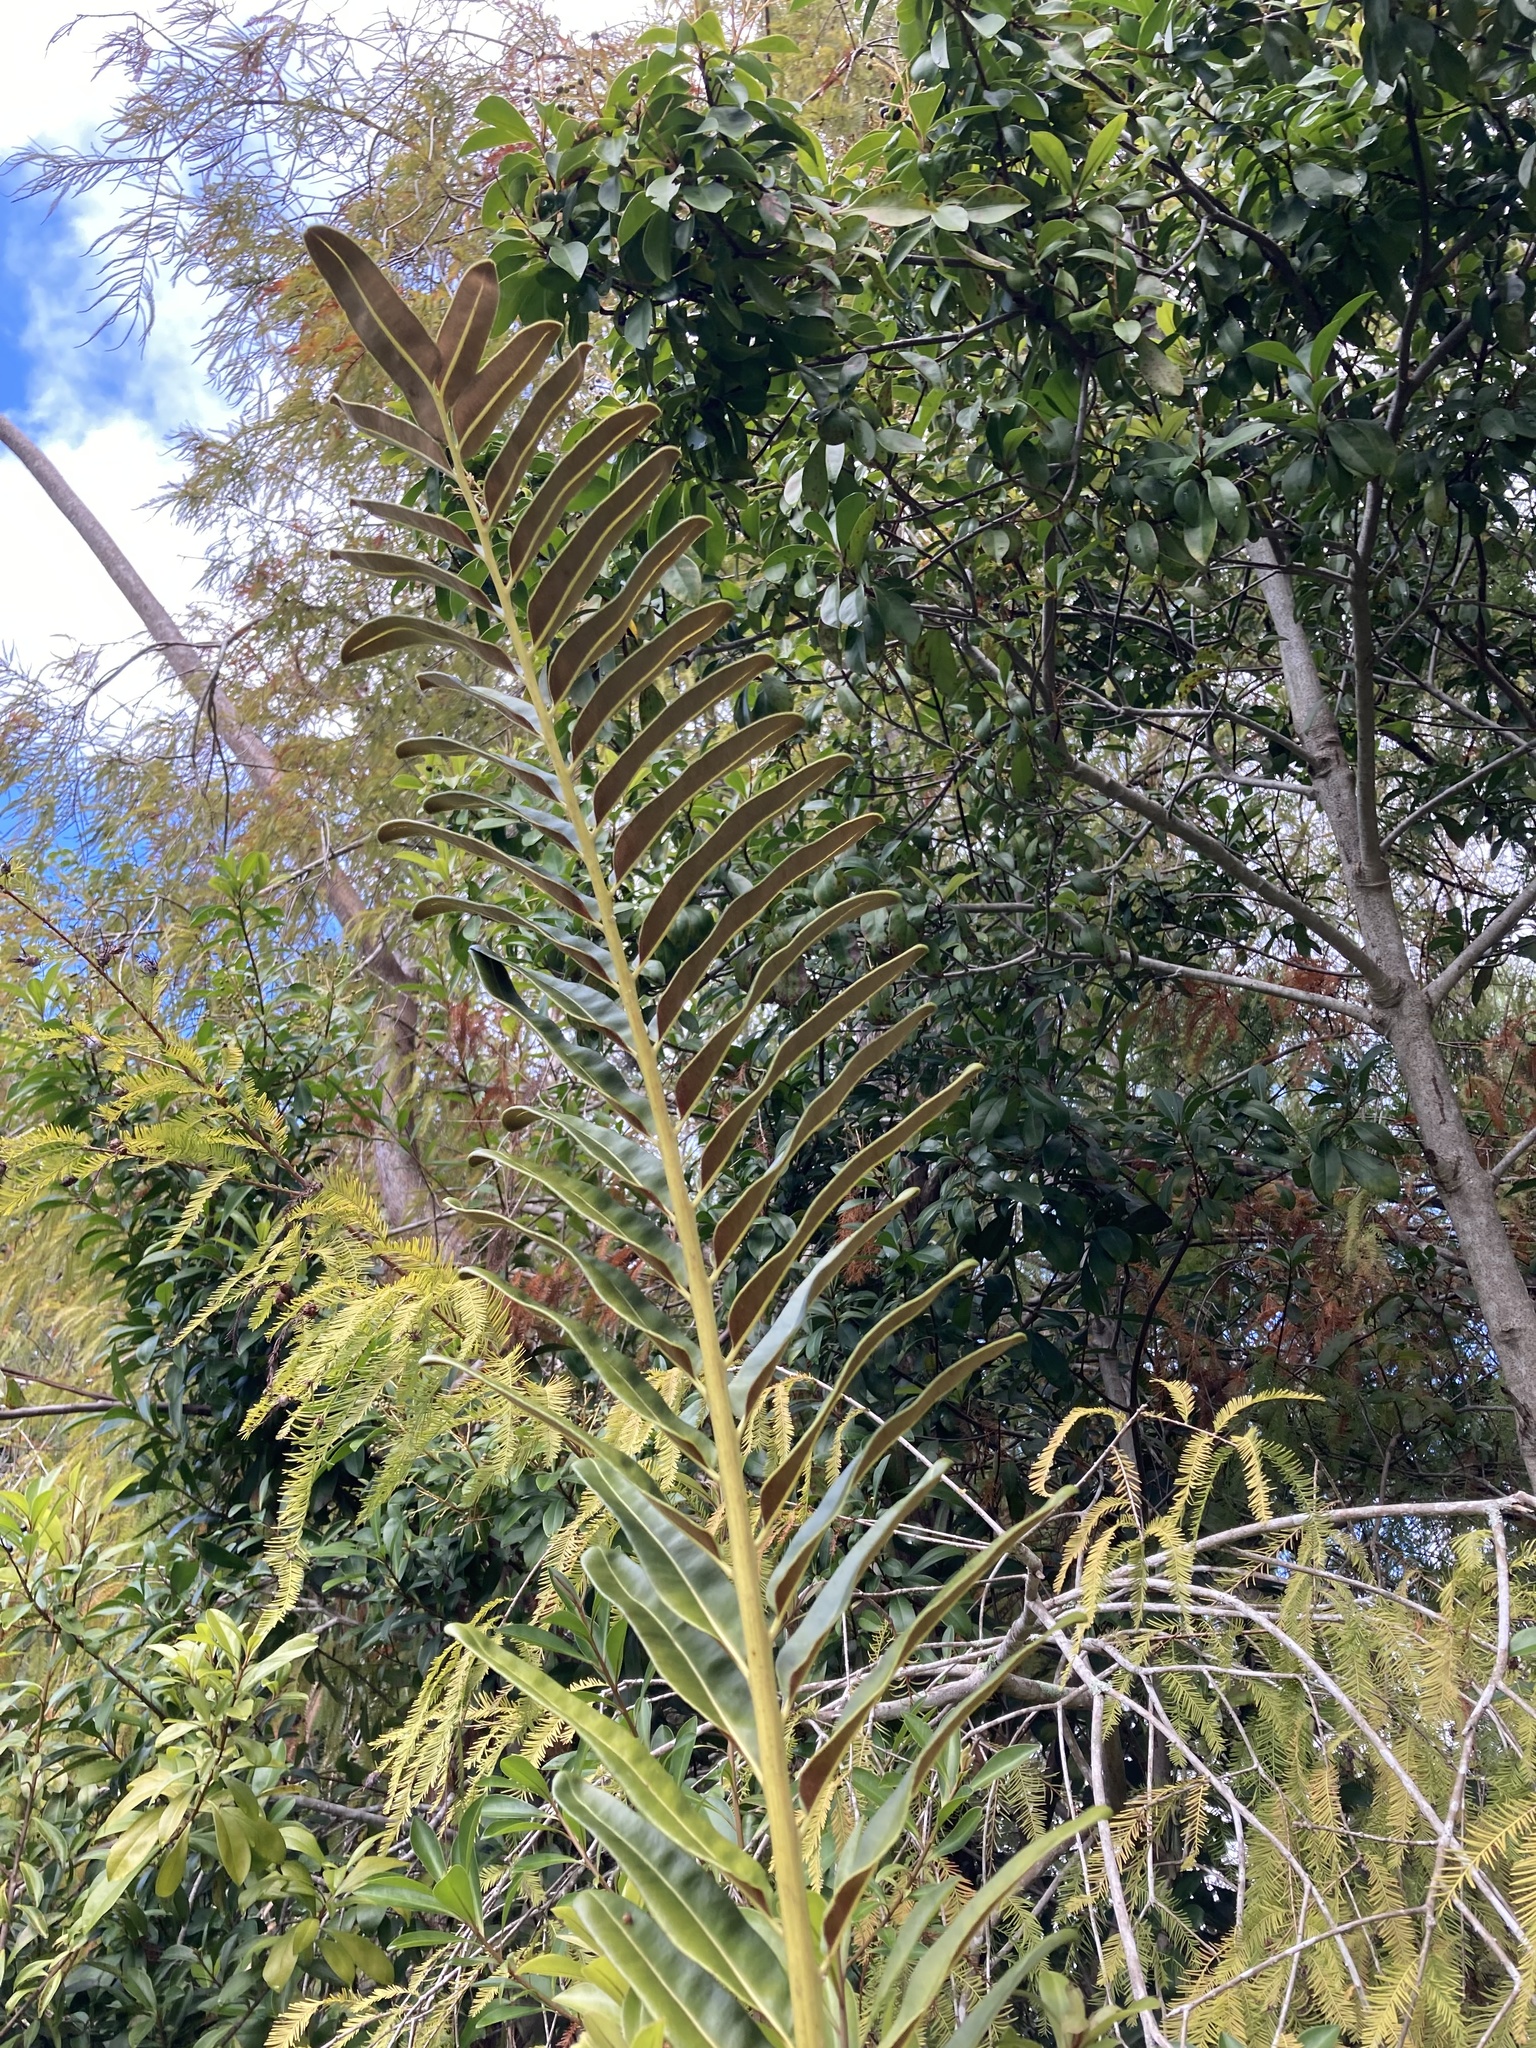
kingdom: Plantae
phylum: Tracheophyta
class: Polypodiopsida
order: Polypodiales
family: Pteridaceae
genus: Acrostichum
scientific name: Acrostichum danaeifolium
